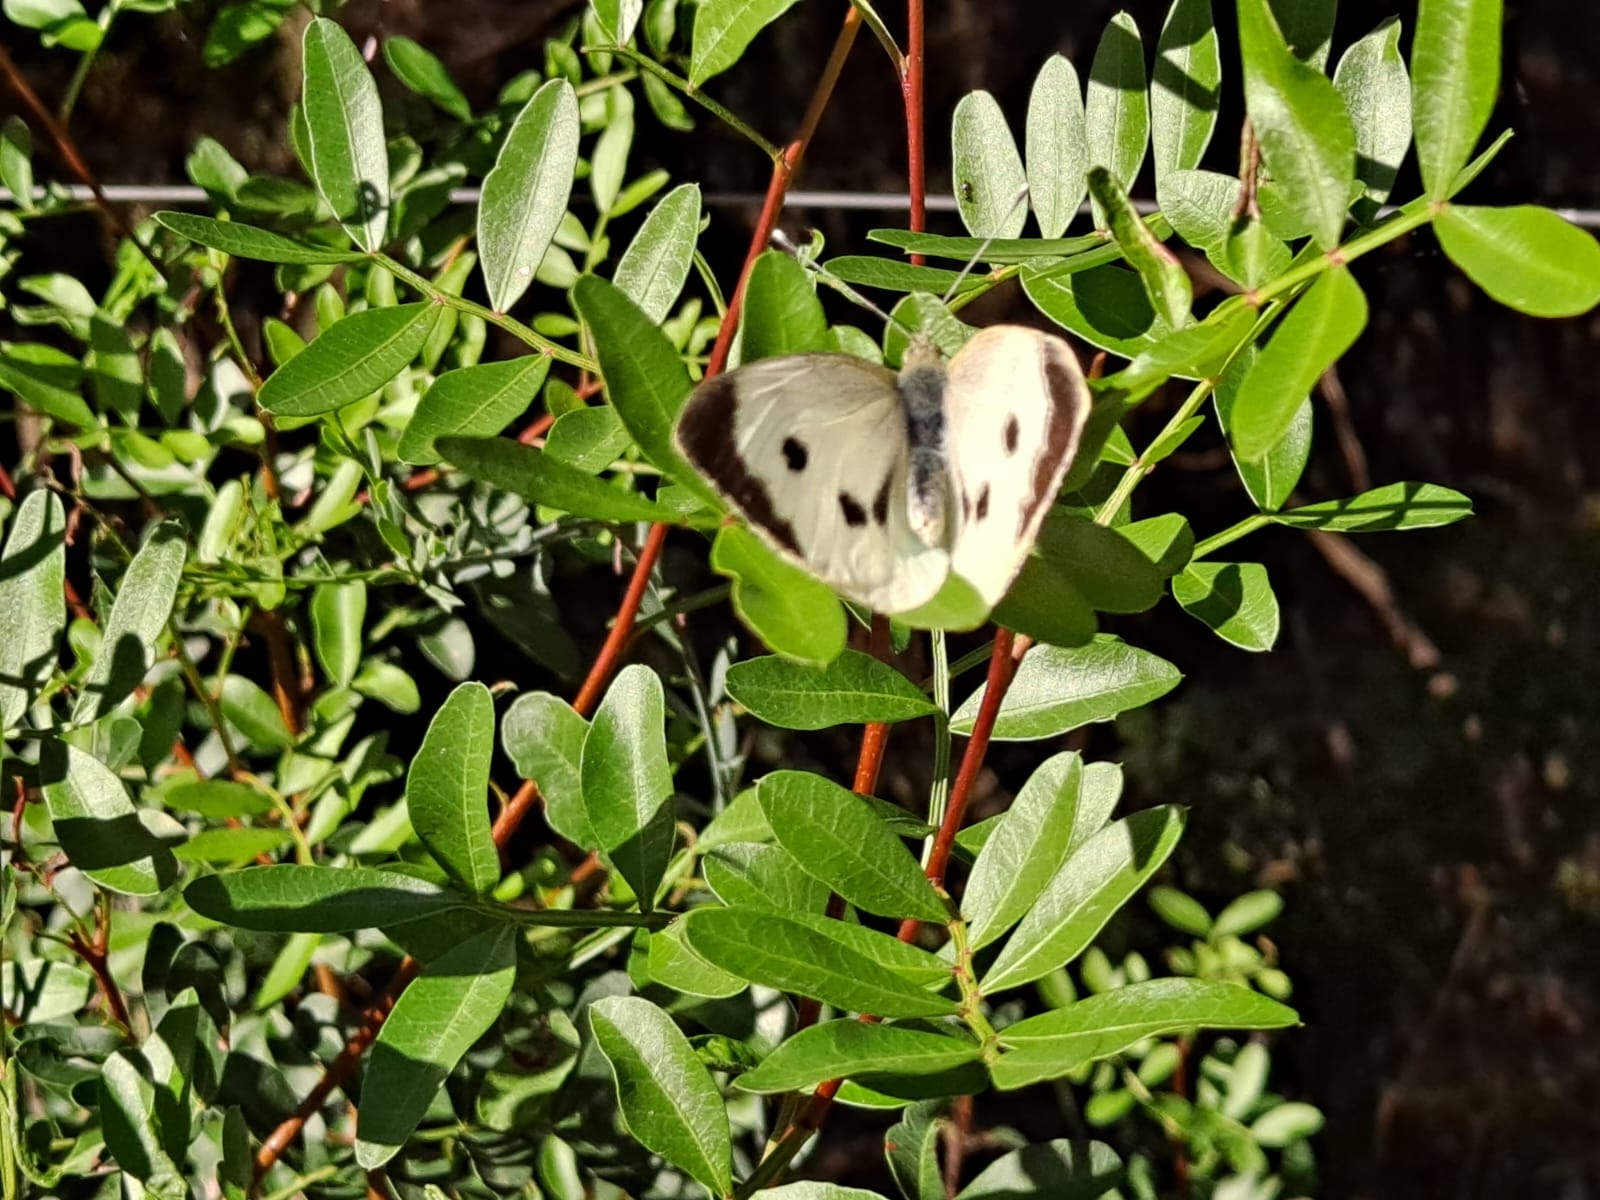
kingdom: Animalia
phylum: Arthropoda
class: Insecta
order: Lepidoptera
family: Pieridae
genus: Pieris
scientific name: Pieris brassicae
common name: Large white
